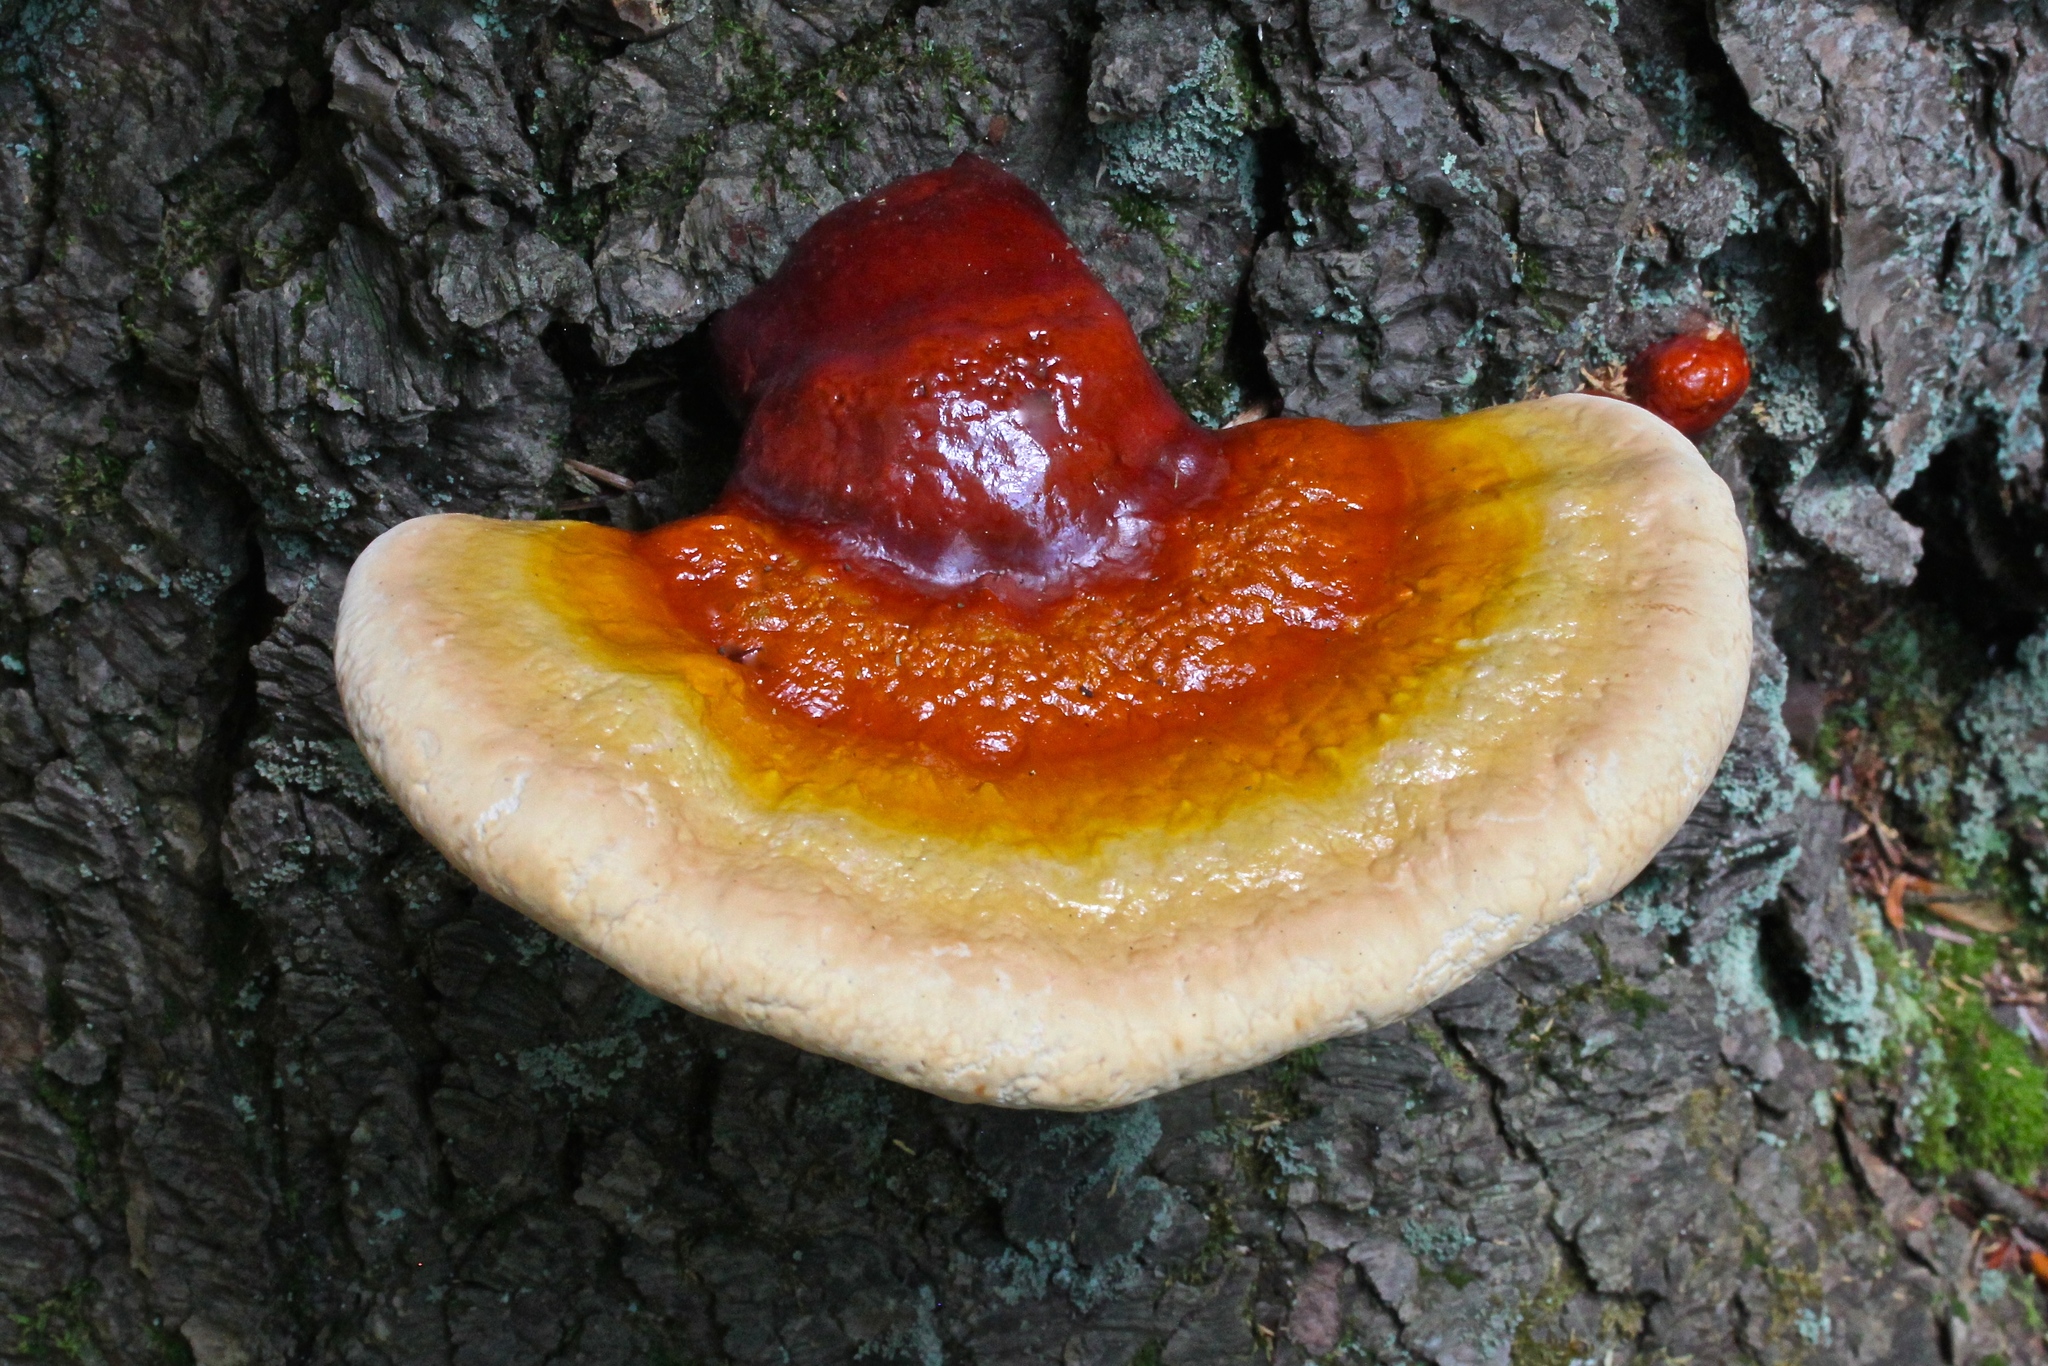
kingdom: Fungi
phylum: Basidiomycota
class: Agaricomycetes
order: Polyporales
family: Polyporaceae
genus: Ganoderma
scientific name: Ganoderma tsugae
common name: Hemlock varnish shelf
